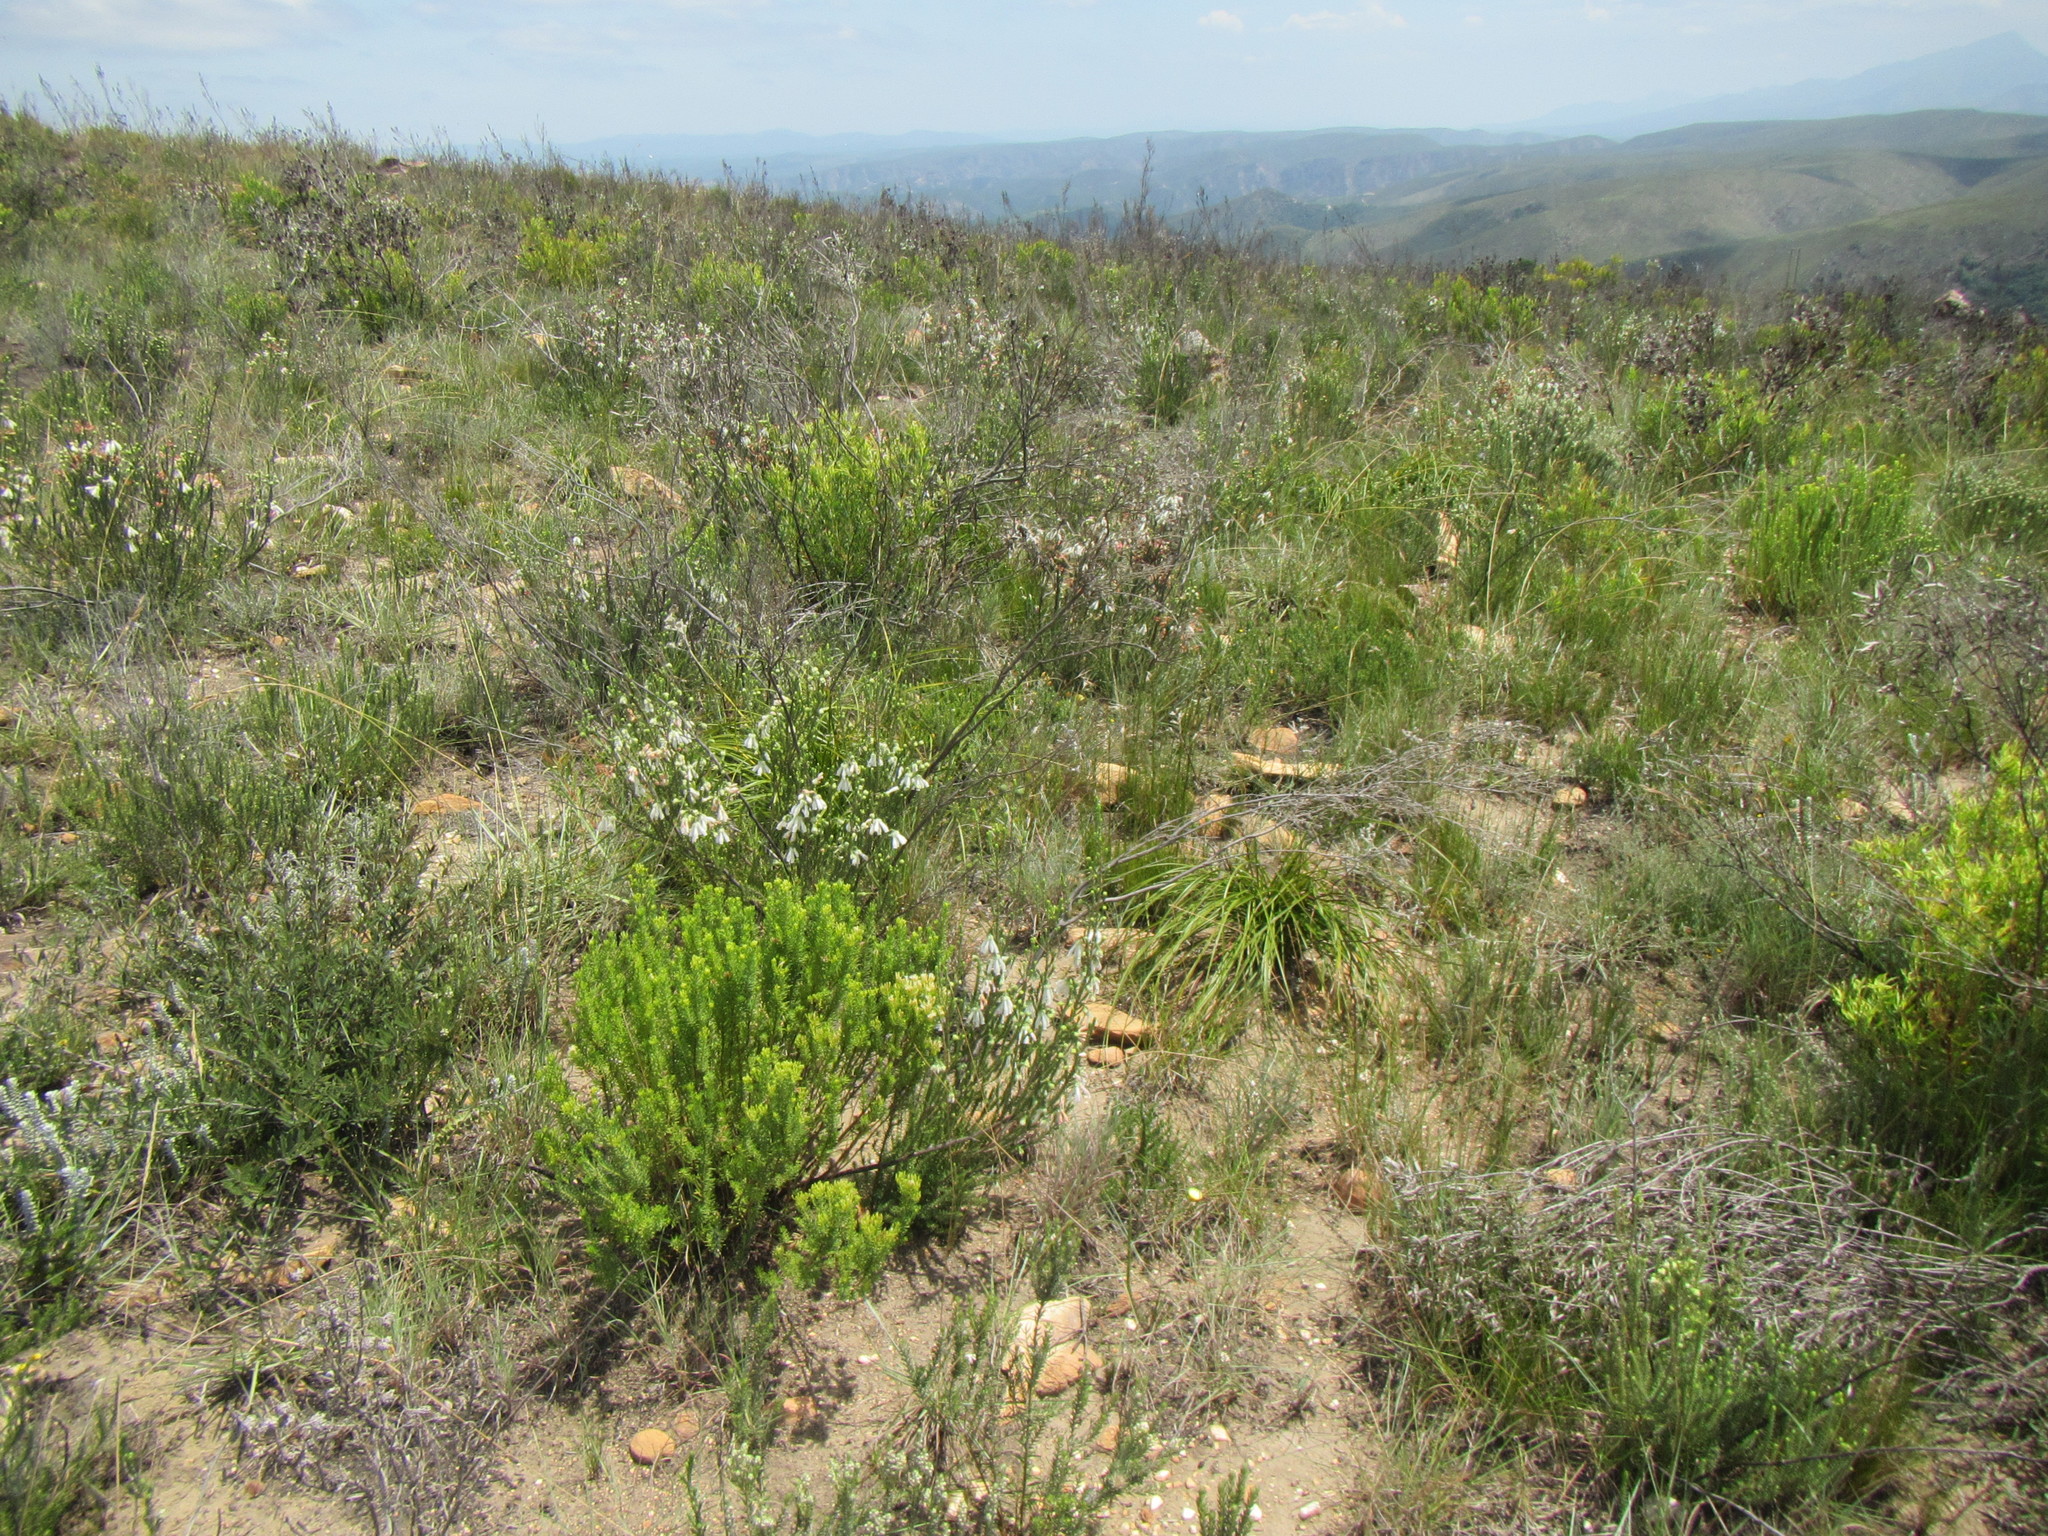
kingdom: Plantae
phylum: Tracheophyta
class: Magnoliopsida
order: Asterales
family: Asteraceae
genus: Pteronia
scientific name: Pteronia teretifolia
